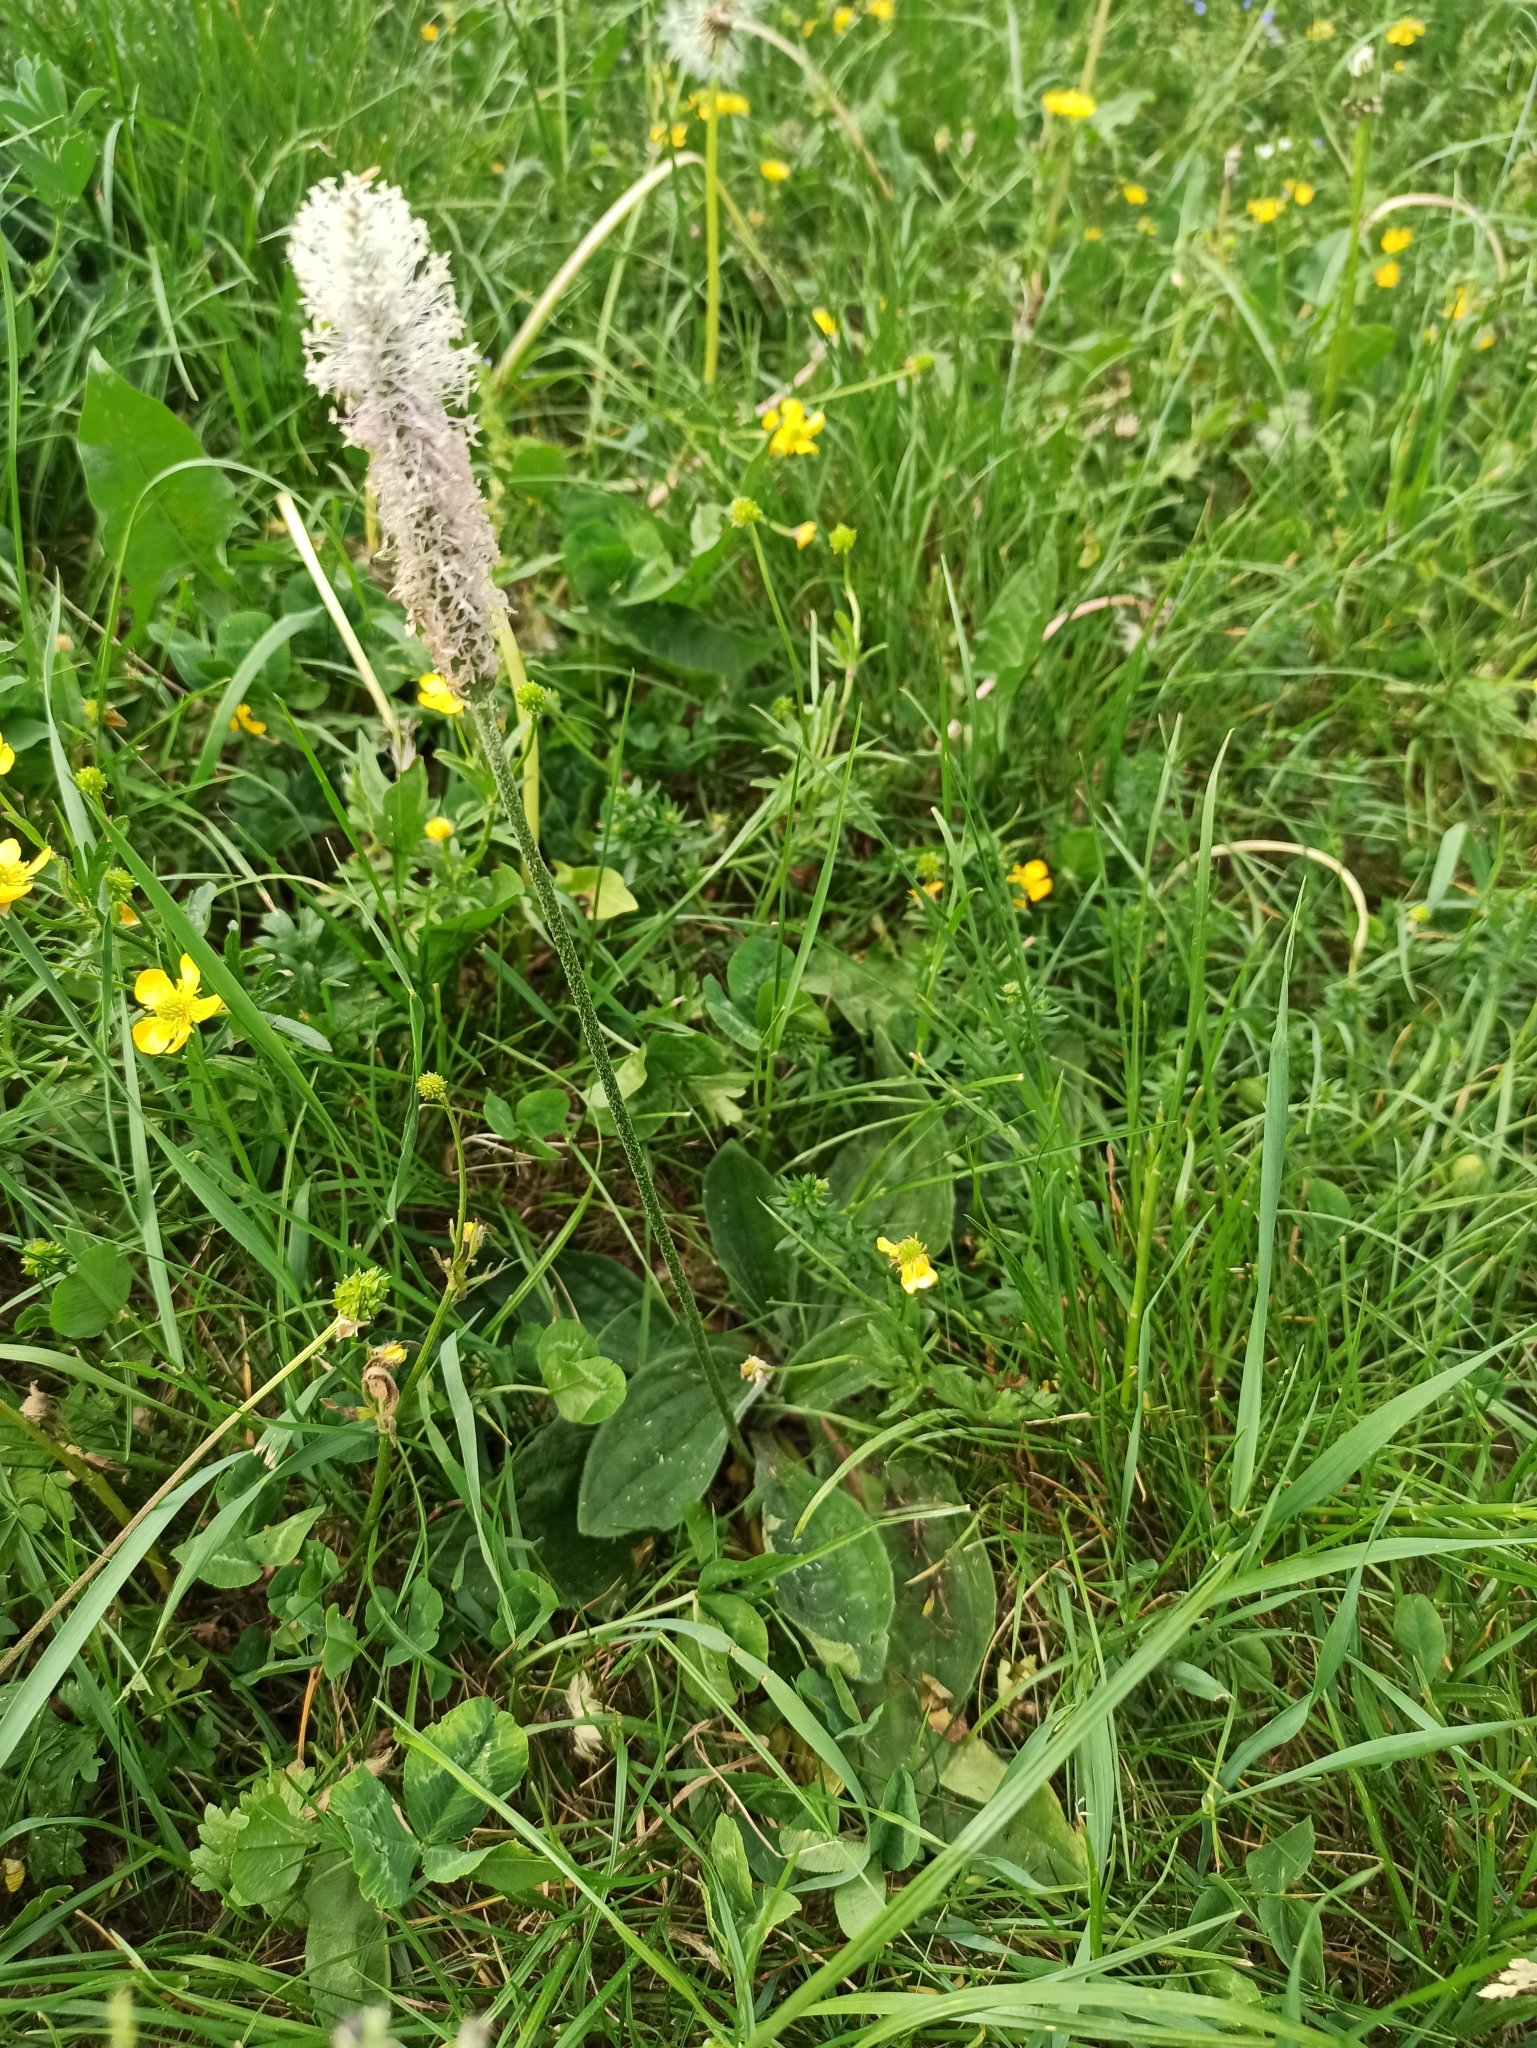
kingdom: Plantae
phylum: Tracheophyta
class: Magnoliopsida
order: Lamiales
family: Plantaginaceae
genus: Plantago
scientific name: Plantago media
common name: Hoary plantain
